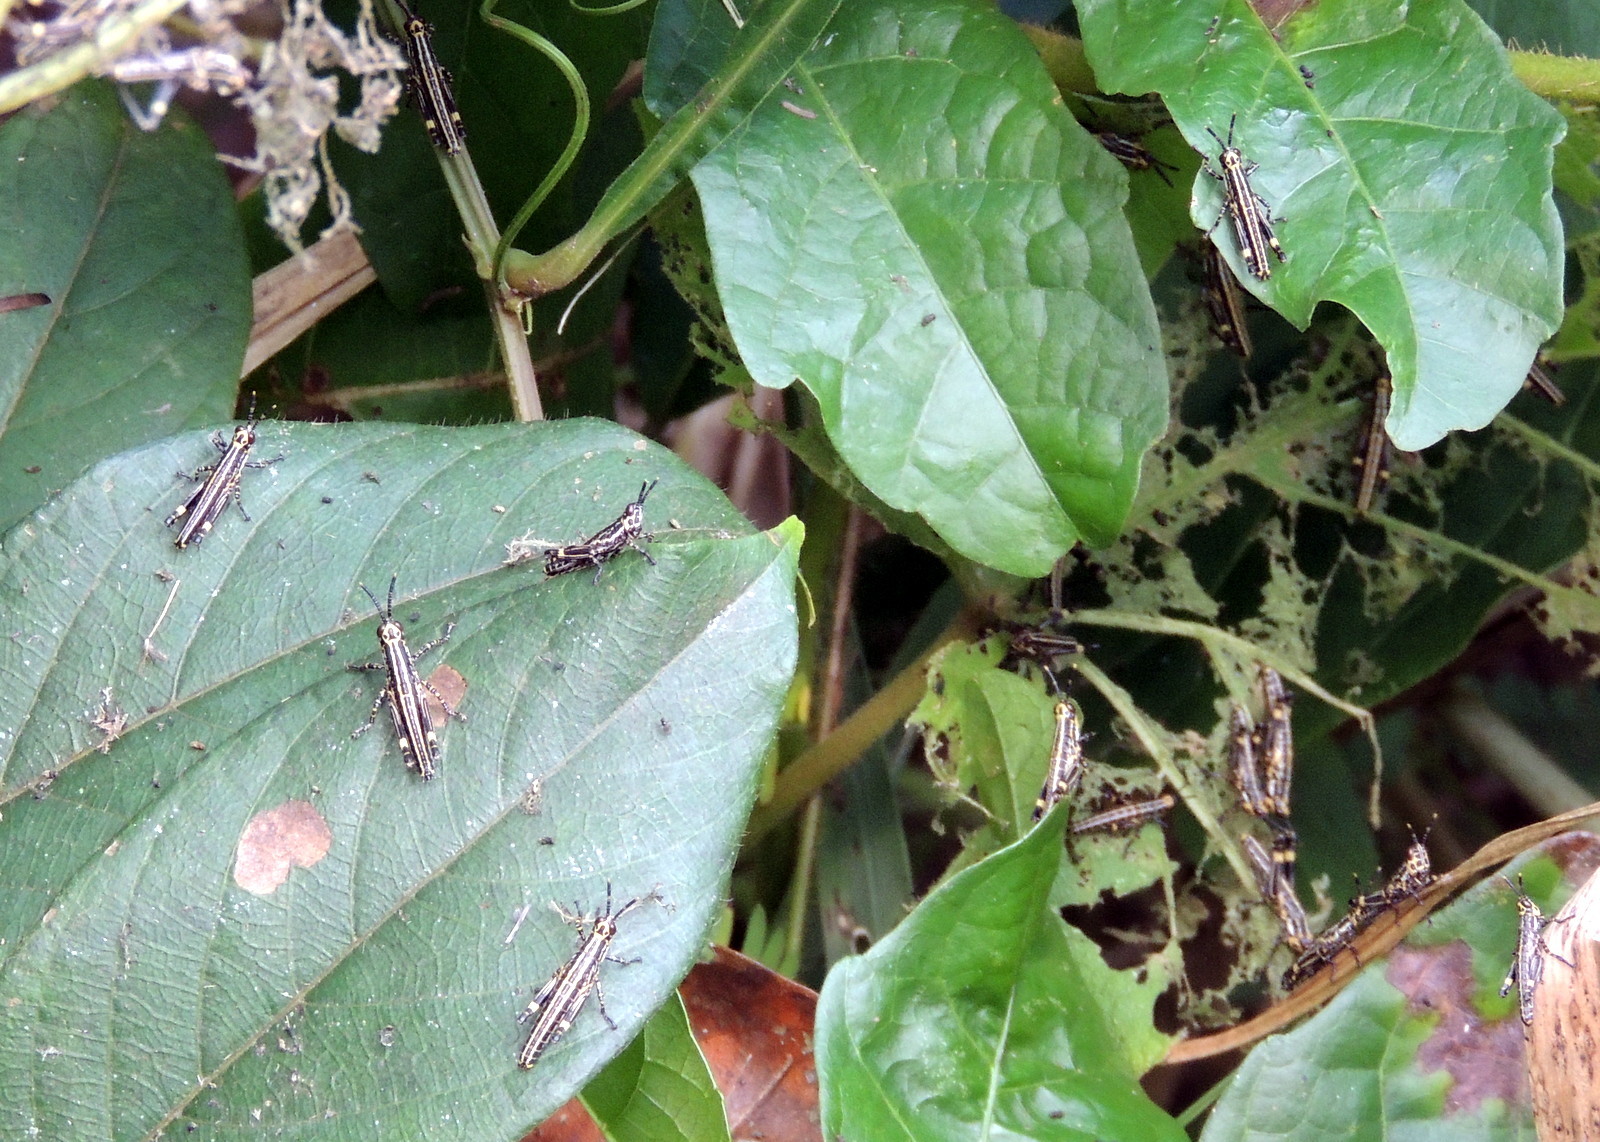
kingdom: Animalia
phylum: Arthropoda
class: Insecta
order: Orthoptera
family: Pyrgomorphidae
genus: Zonocerus
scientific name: Zonocerus variegatus
